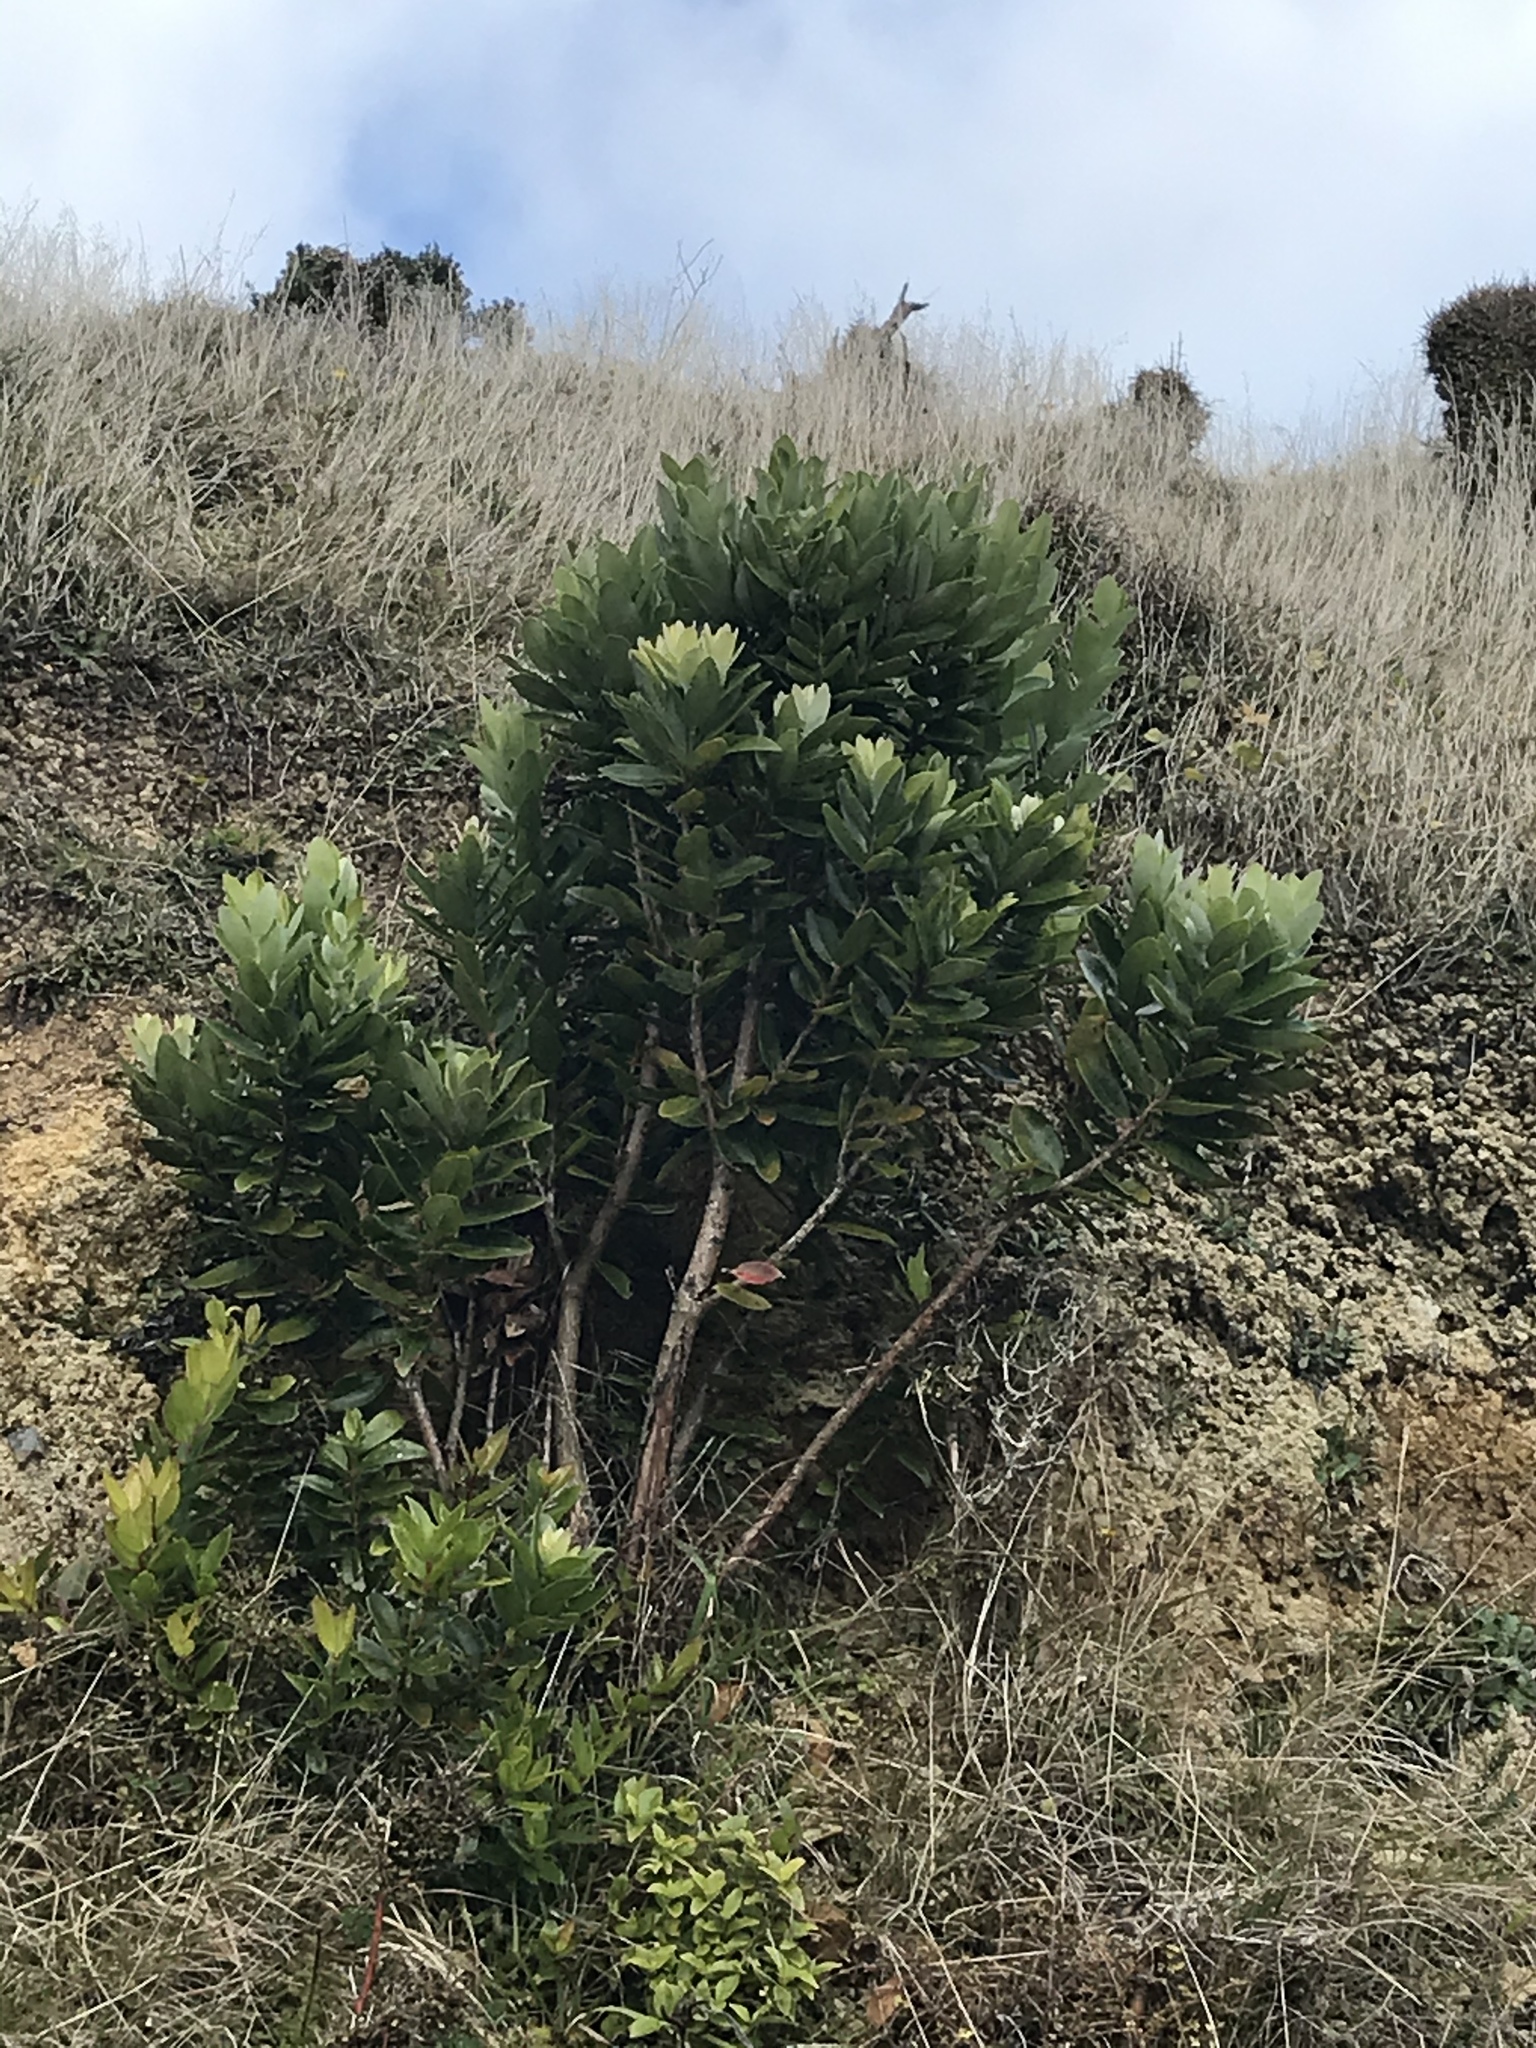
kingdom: Plantae
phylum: Tracheophyta
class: Magnoliopsida
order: Myrtales
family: Myrtaceae
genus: Metrosideros
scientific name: Metrosideros excelsa
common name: New zealand christmastree
